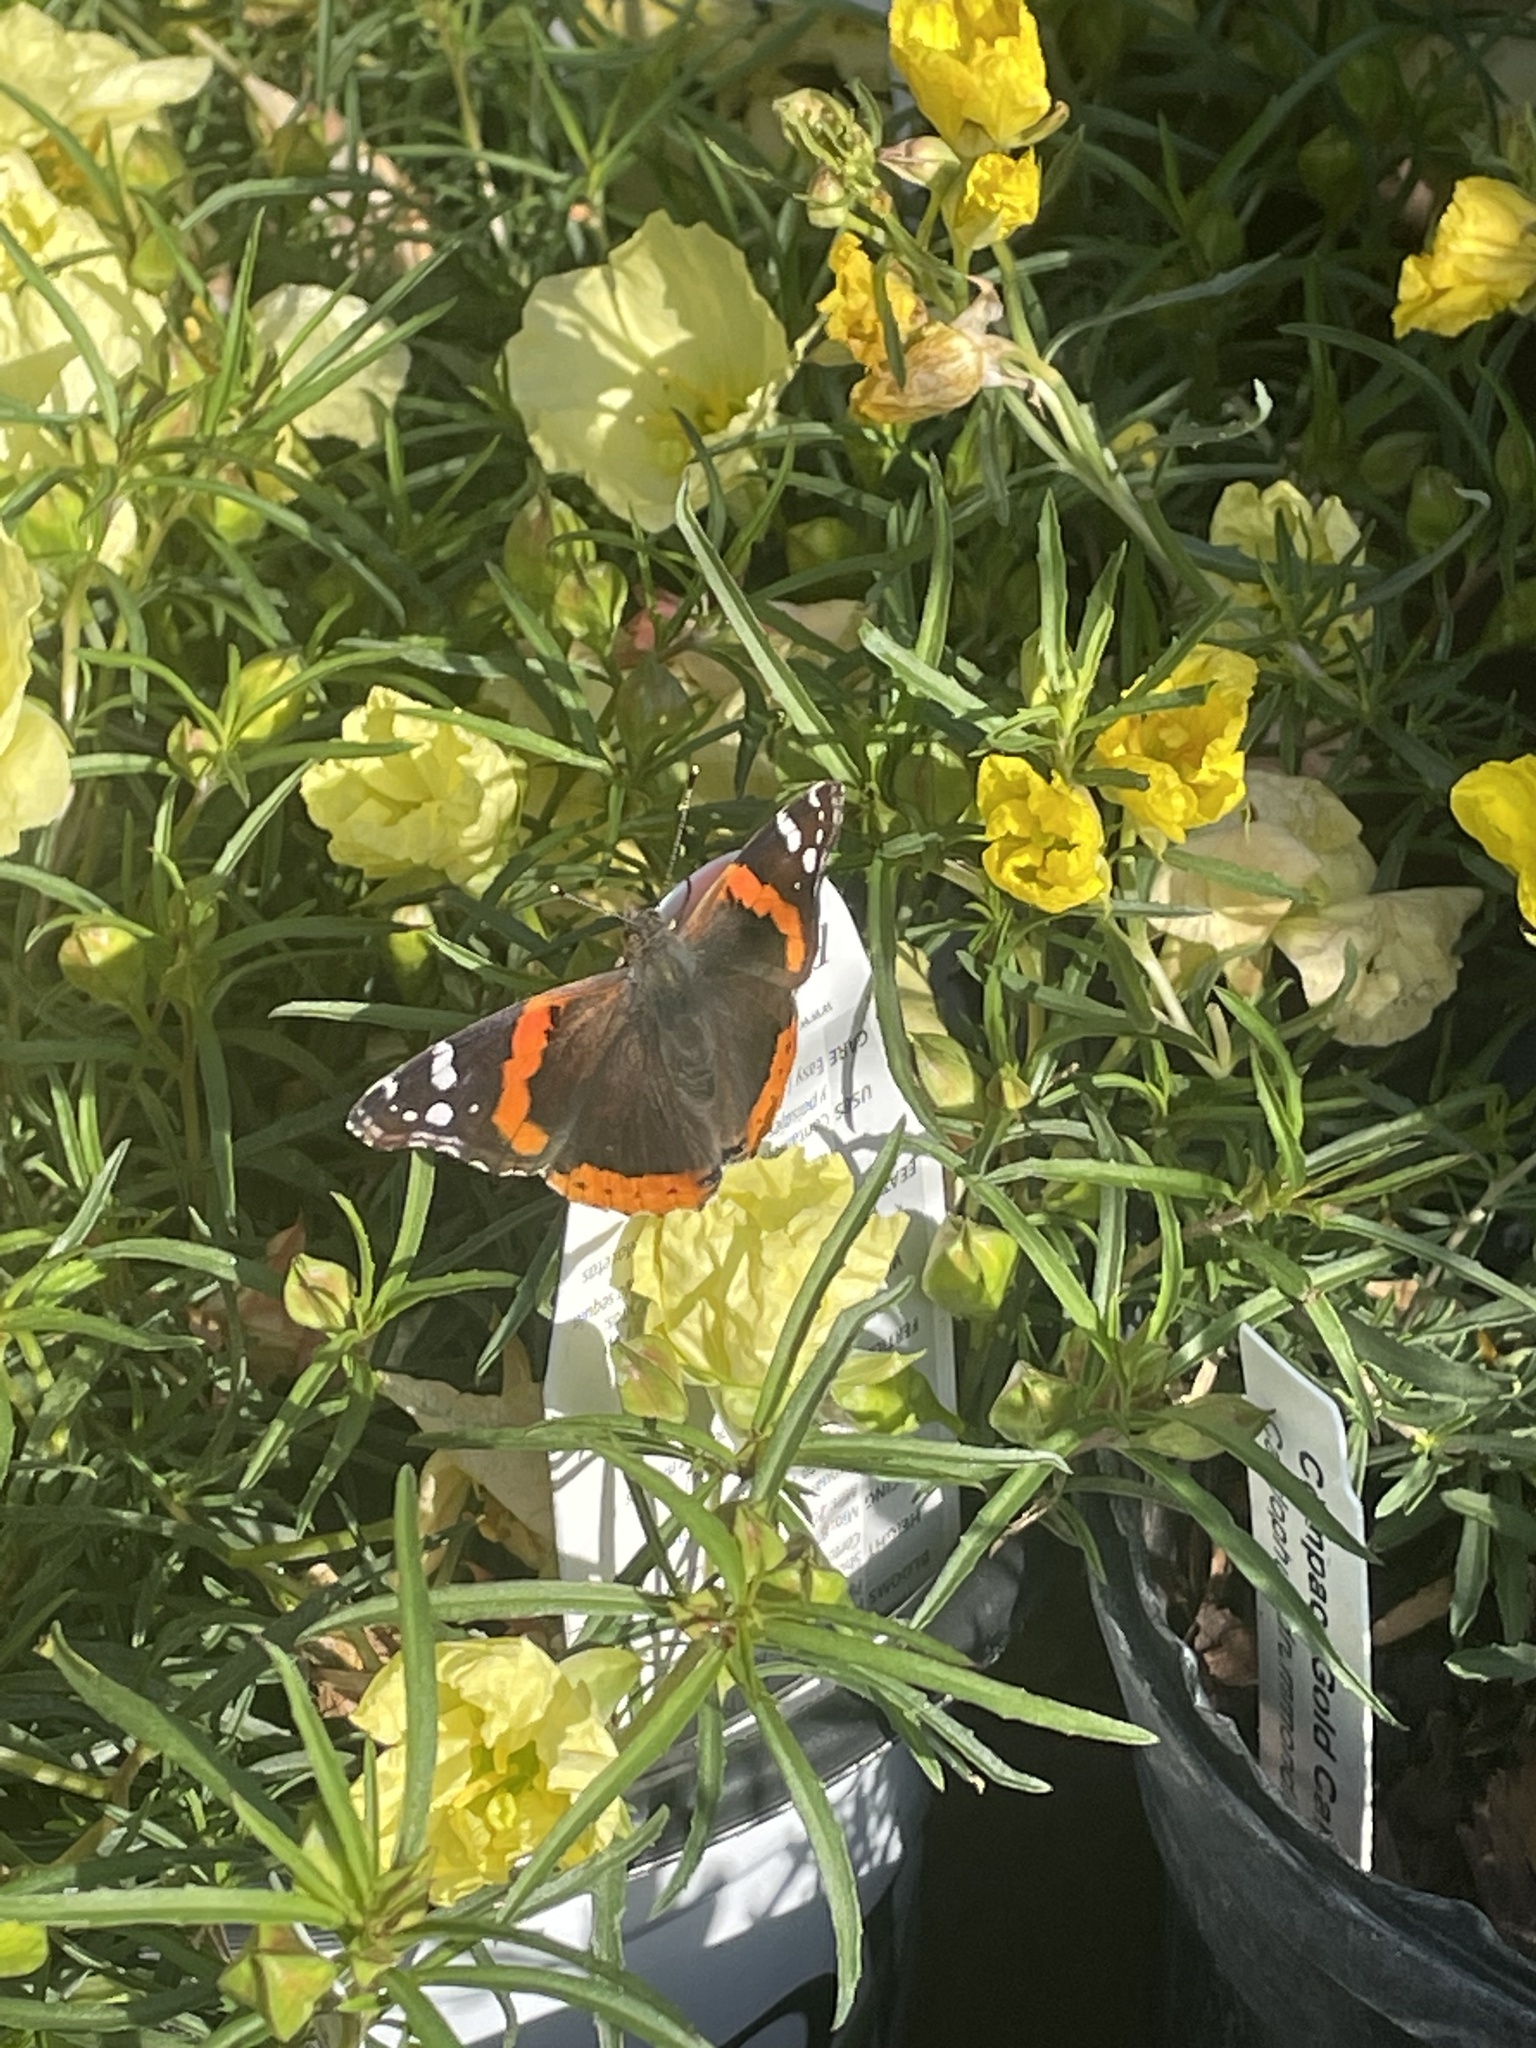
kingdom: Animalia
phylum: Arthropoda
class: Insecta
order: Lepidoptera
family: Nymphalidae
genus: Vanessa
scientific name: Vanessa atalanta
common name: Red admiral
